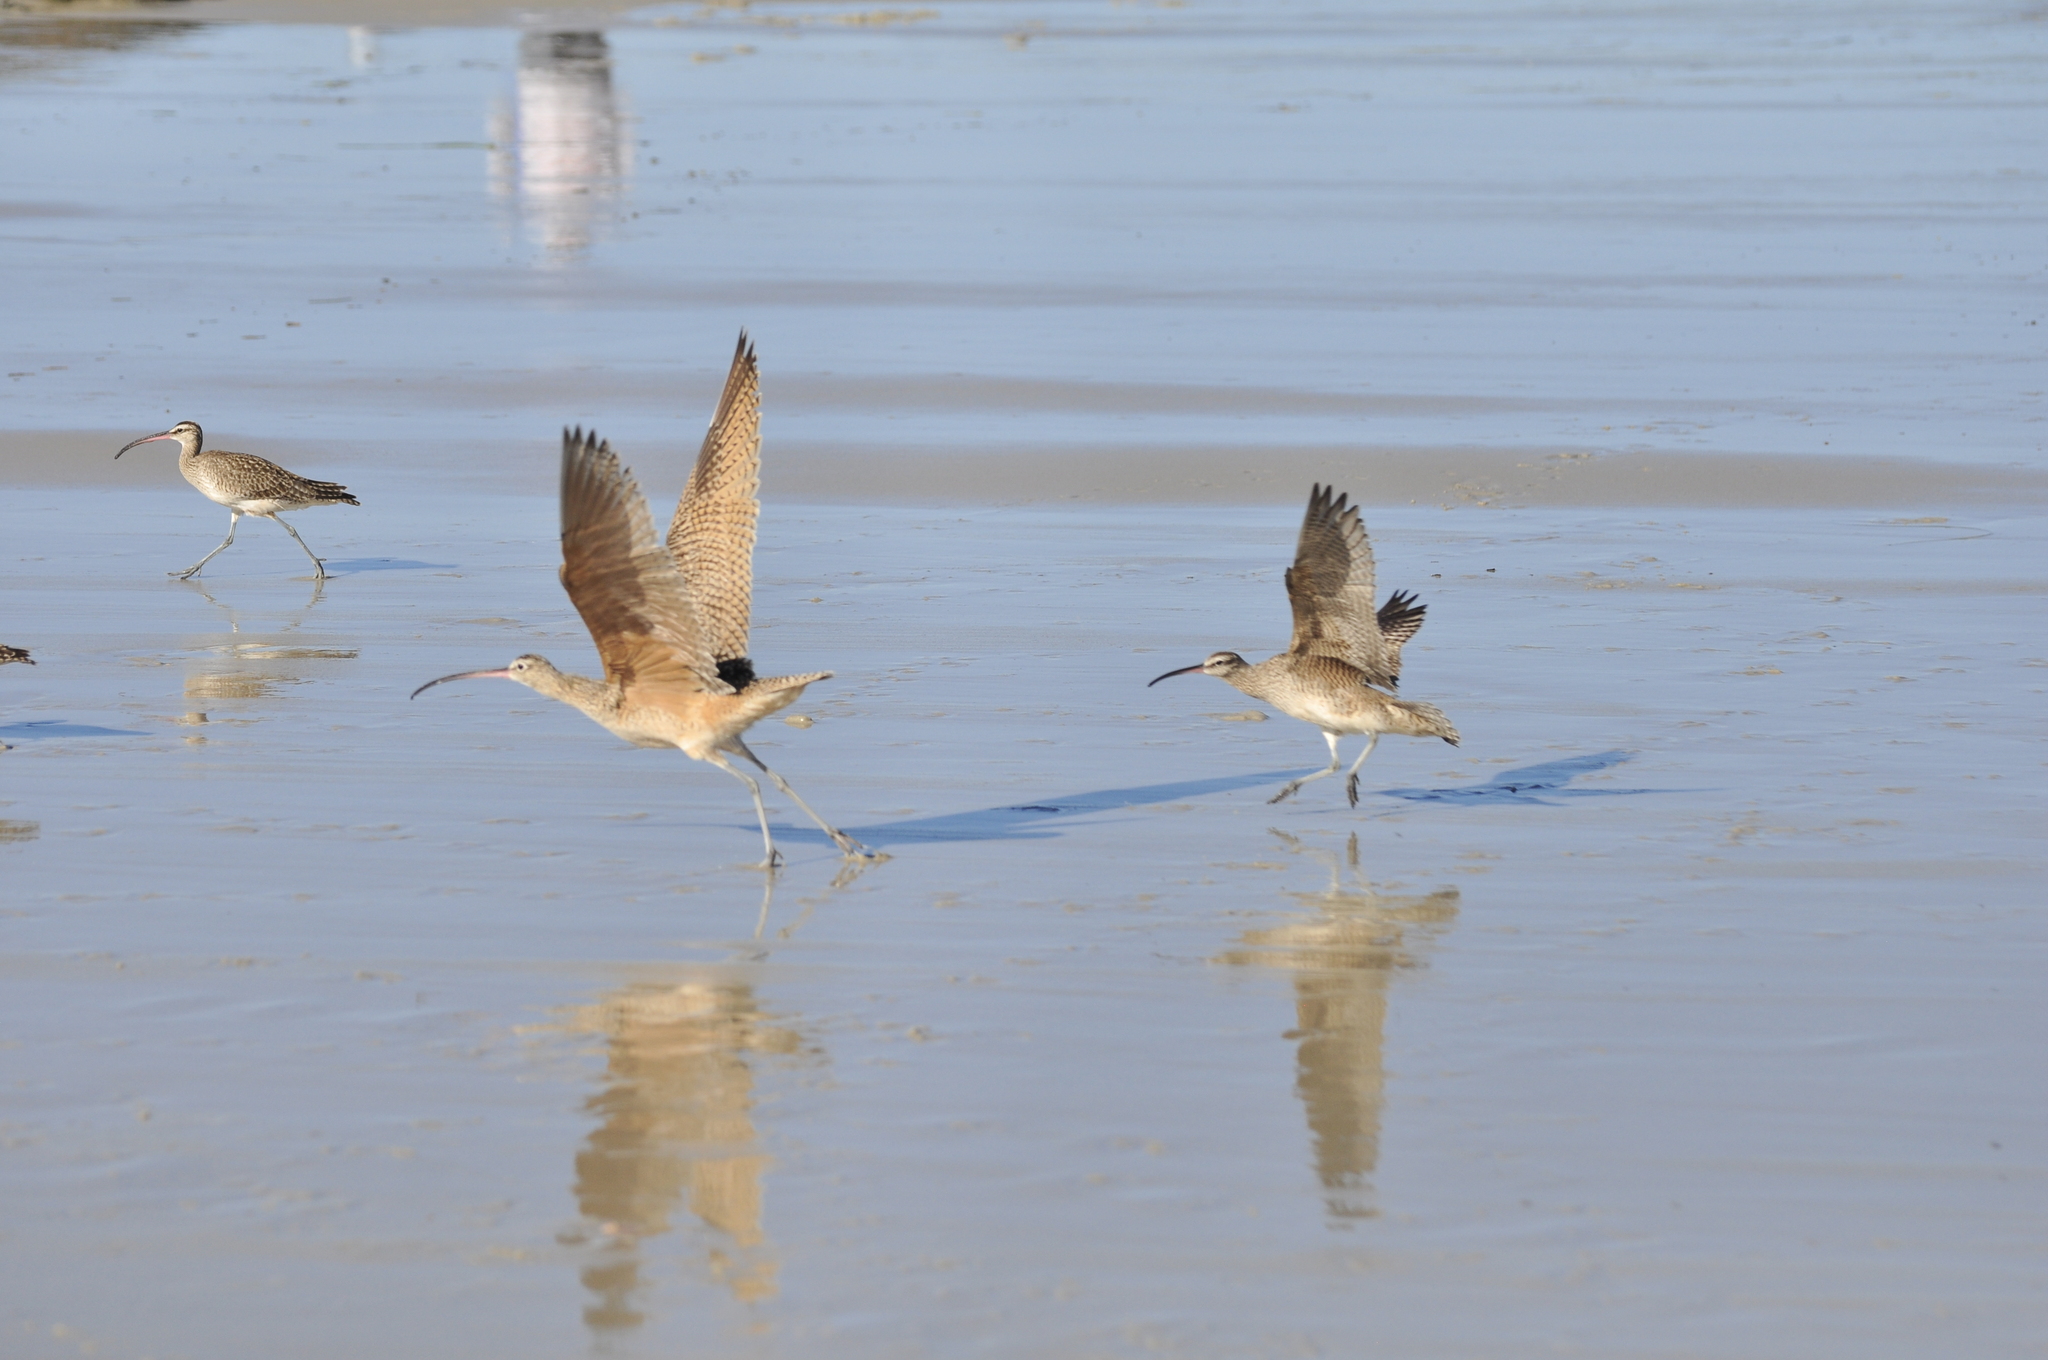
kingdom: Animalia
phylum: Chordata
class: Aves
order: Charadriiformes
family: Scolopacidae
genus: Numenius
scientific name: Numenius americanus
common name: Long-billed curlew
